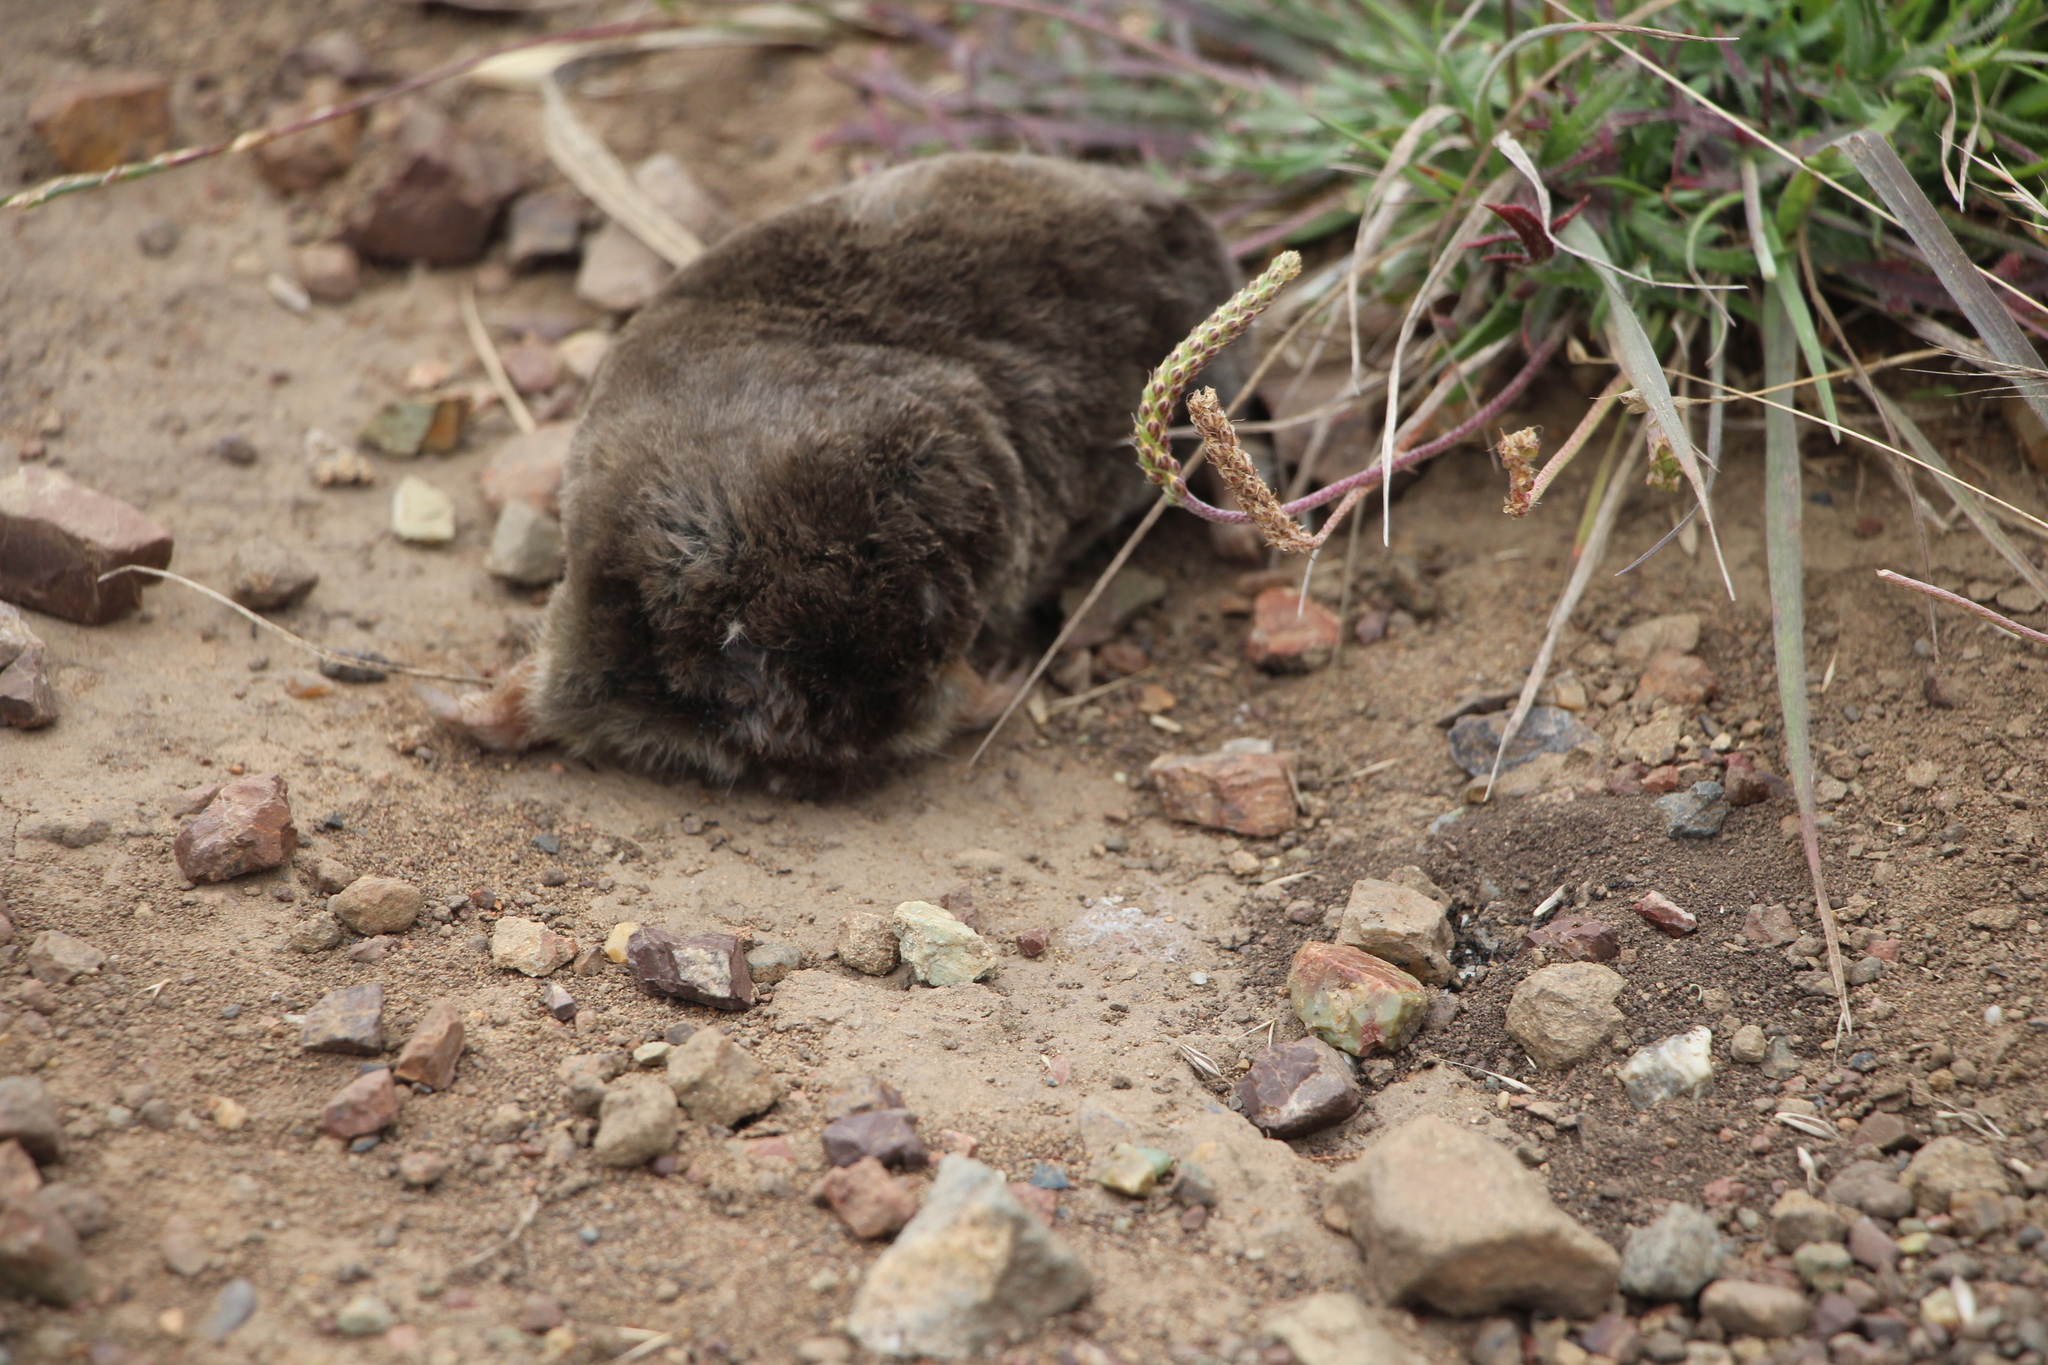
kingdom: Animalia
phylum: Chordata
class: Mammalia
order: Soricomorpha
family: Talpidae
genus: Scapanus
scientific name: Scapanus latimanus
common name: Broad-footed mole
